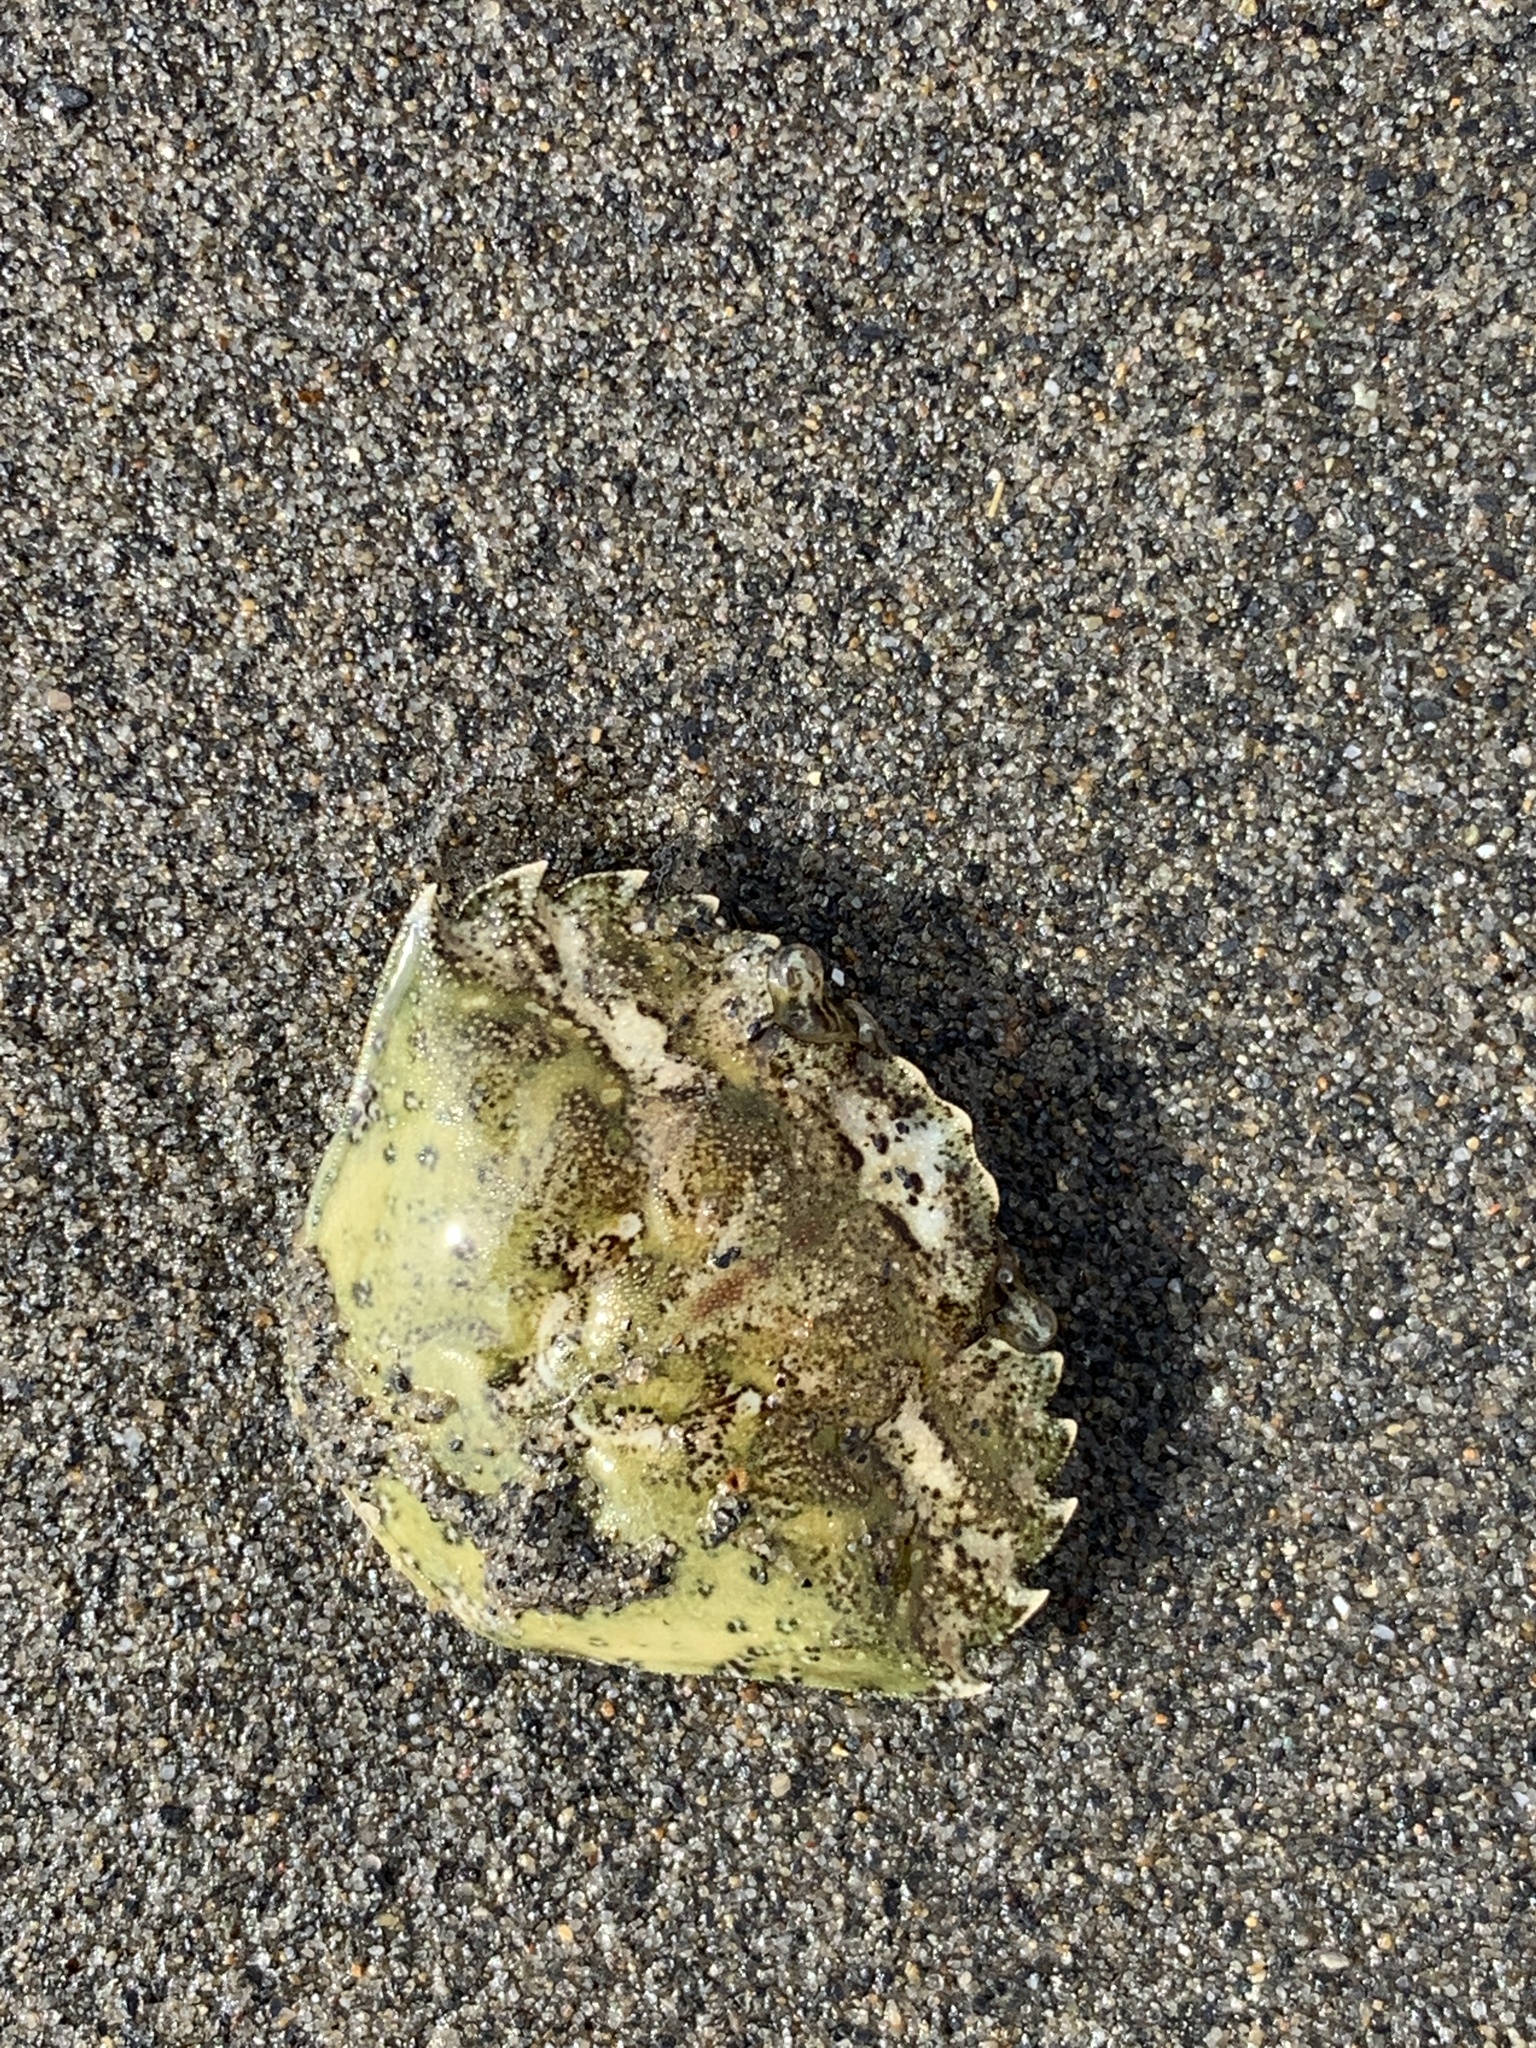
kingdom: Animalia
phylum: Arthropoda
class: Malacostraca
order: Decapoda
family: Carcinidae
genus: Carcinus
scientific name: Carcinus maenas
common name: European green crab
